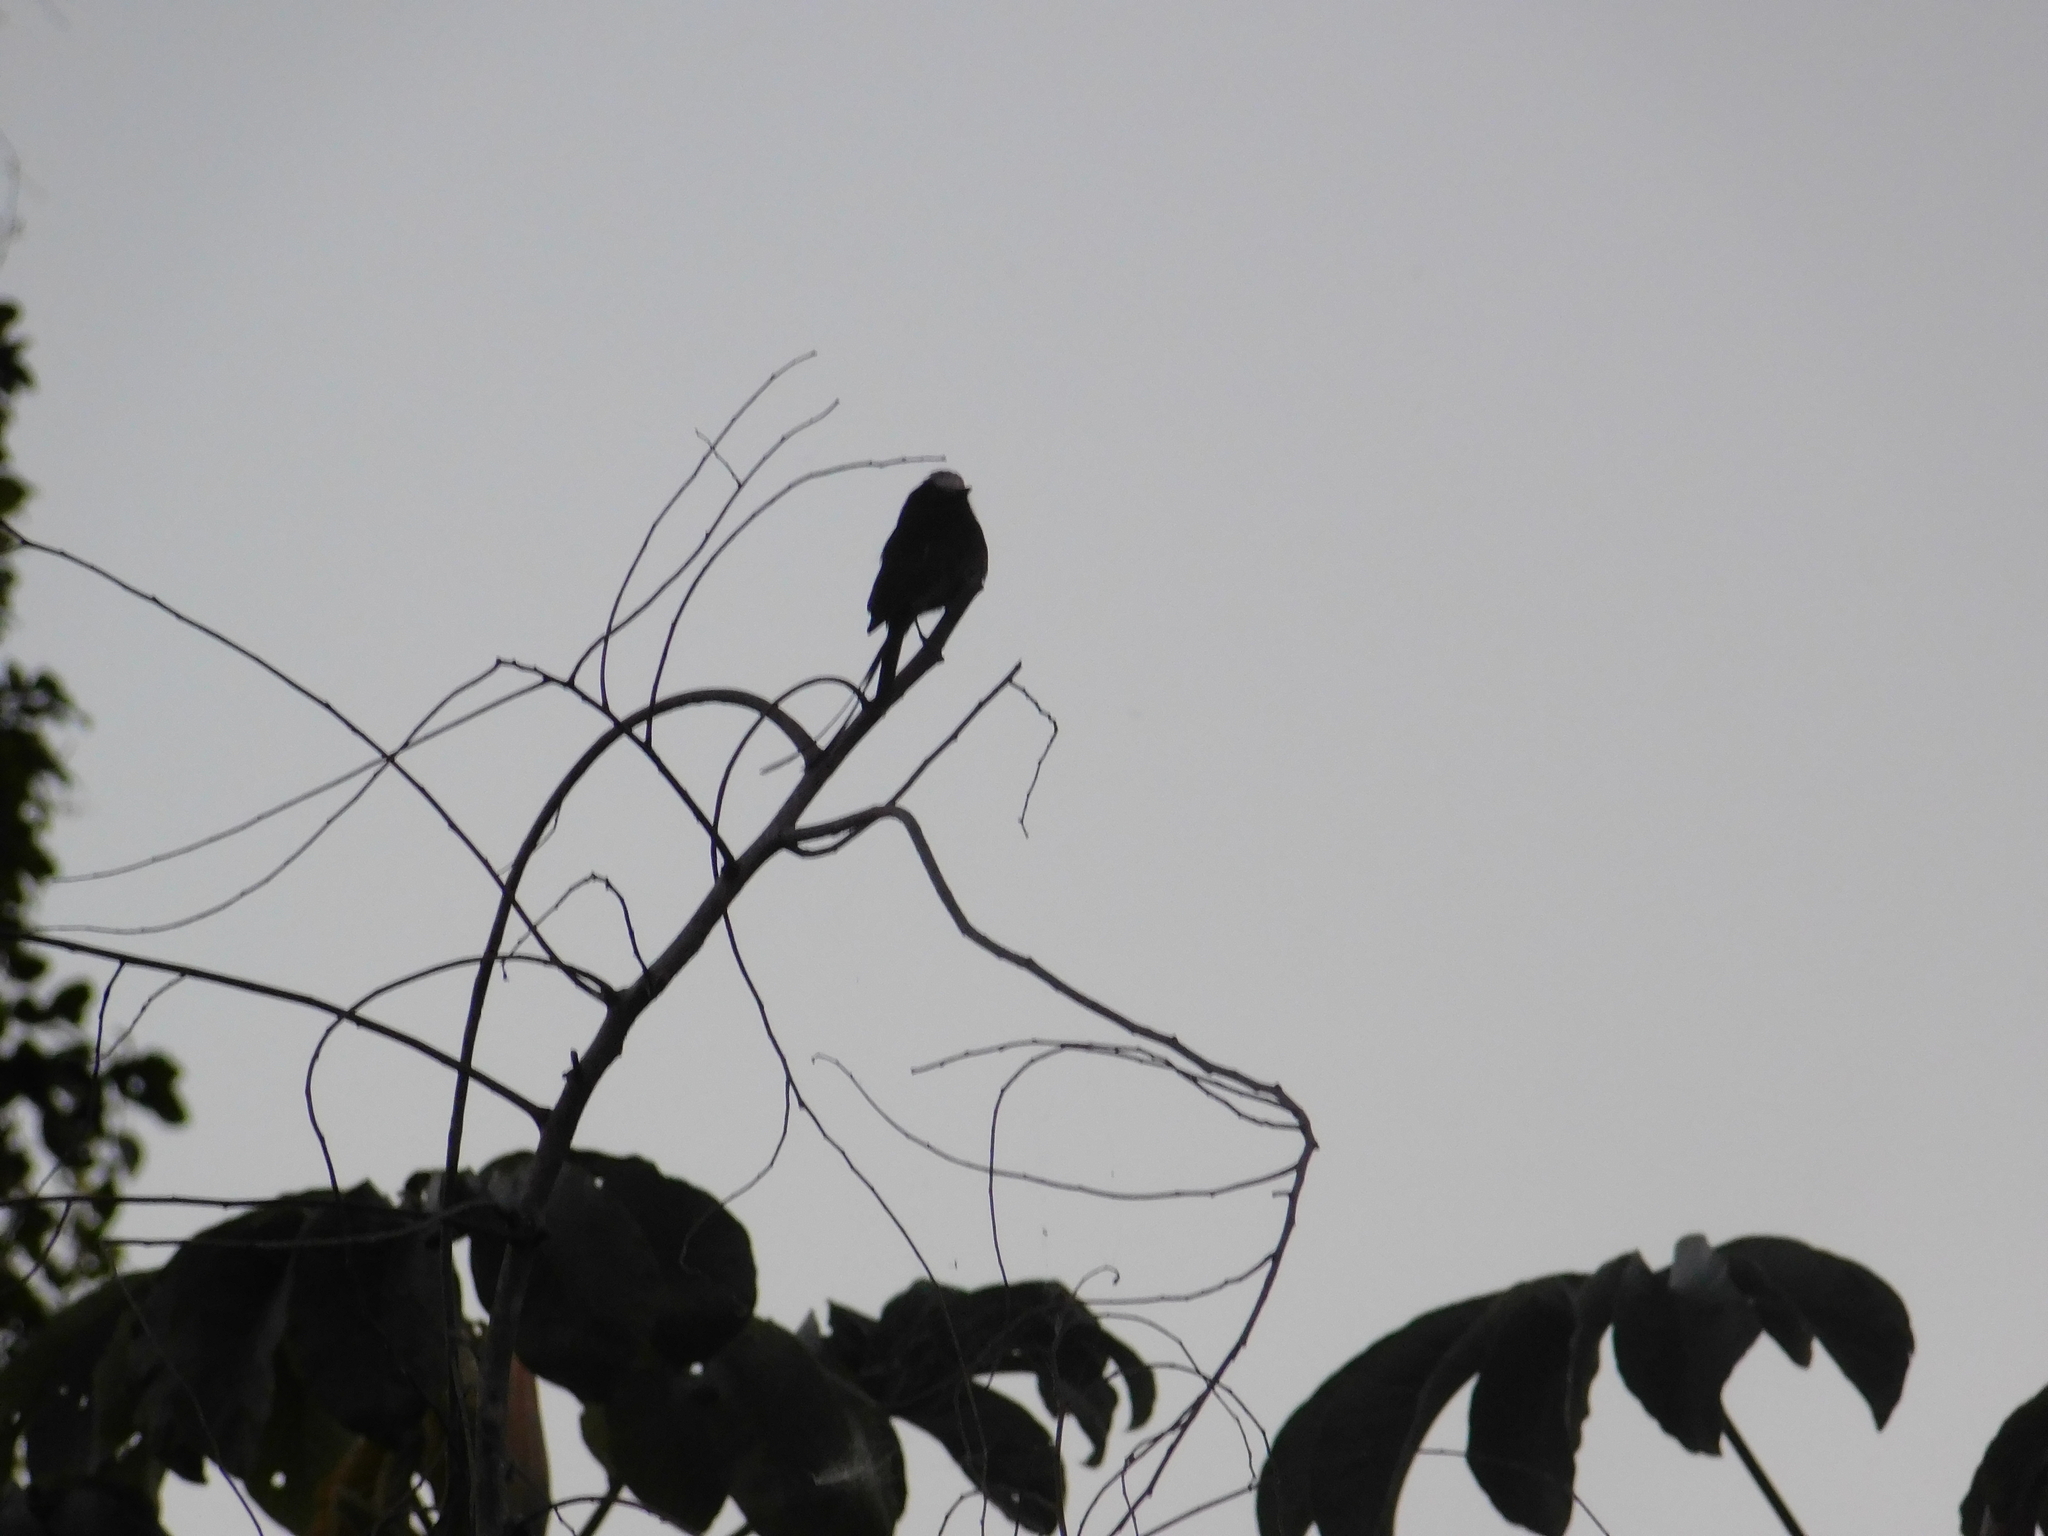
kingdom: Animalia
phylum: Chordata
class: Aves
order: Passeriformes
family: Tyrannidae
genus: Colonia
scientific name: Colonia colonus
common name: Long-tailed tyrant
